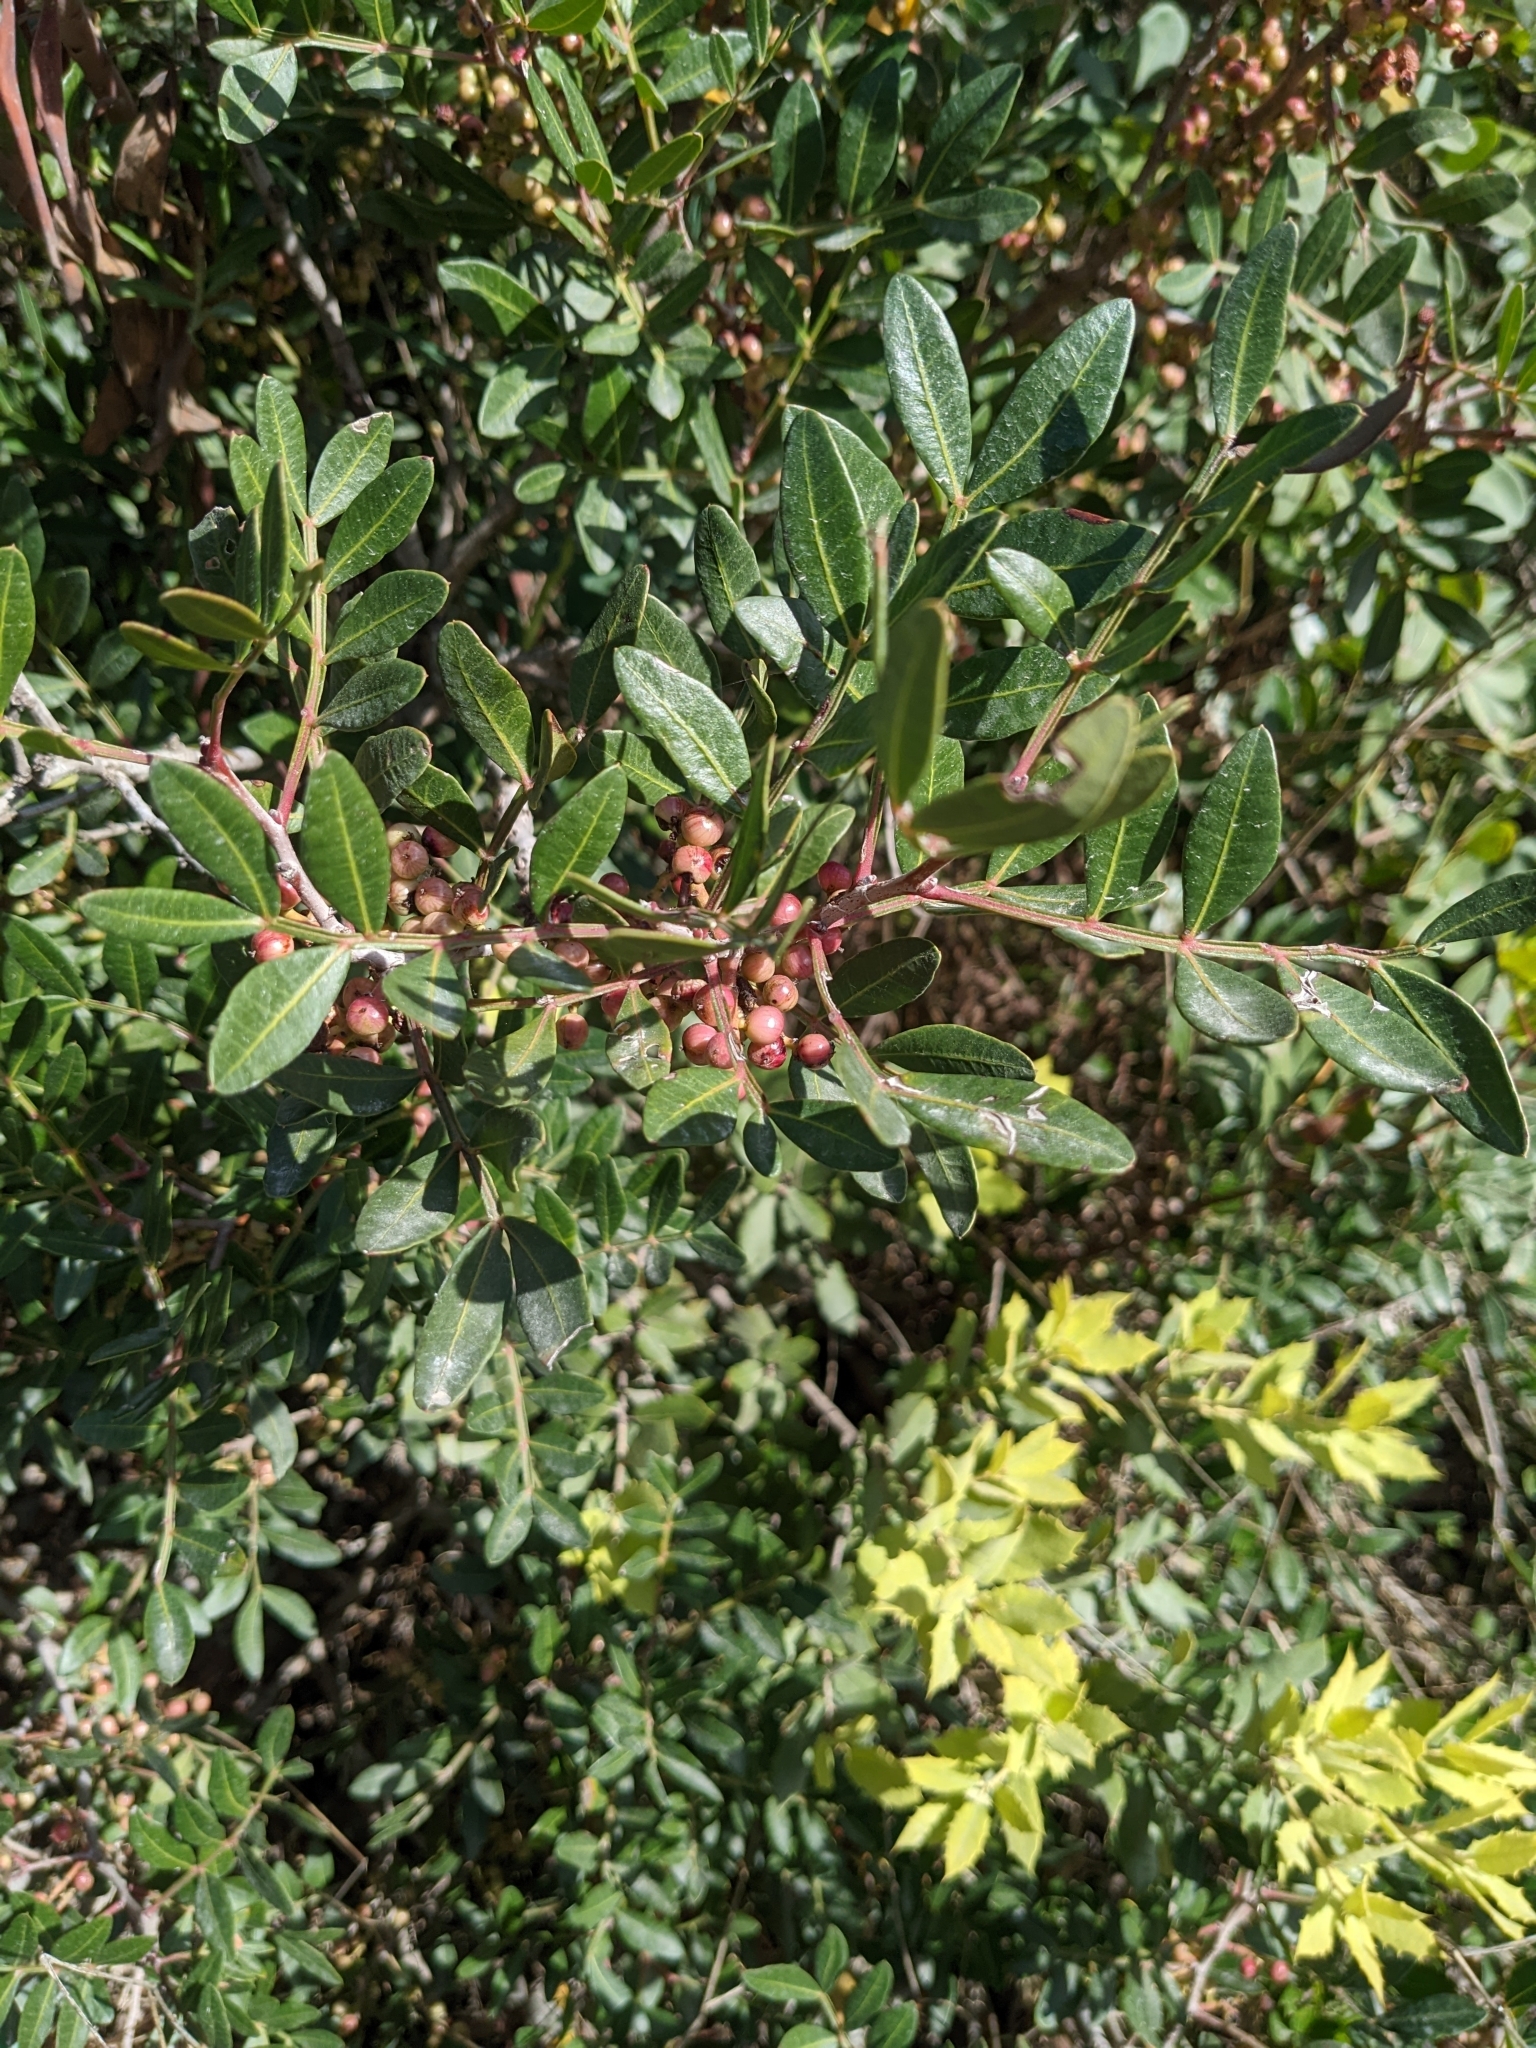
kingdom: Plantae
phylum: Tracheophyta
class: Magnoliopsida
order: Sapindales
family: Anacardiaceae
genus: Pistacia
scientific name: Pistacia lentiscus
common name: Lentisk
